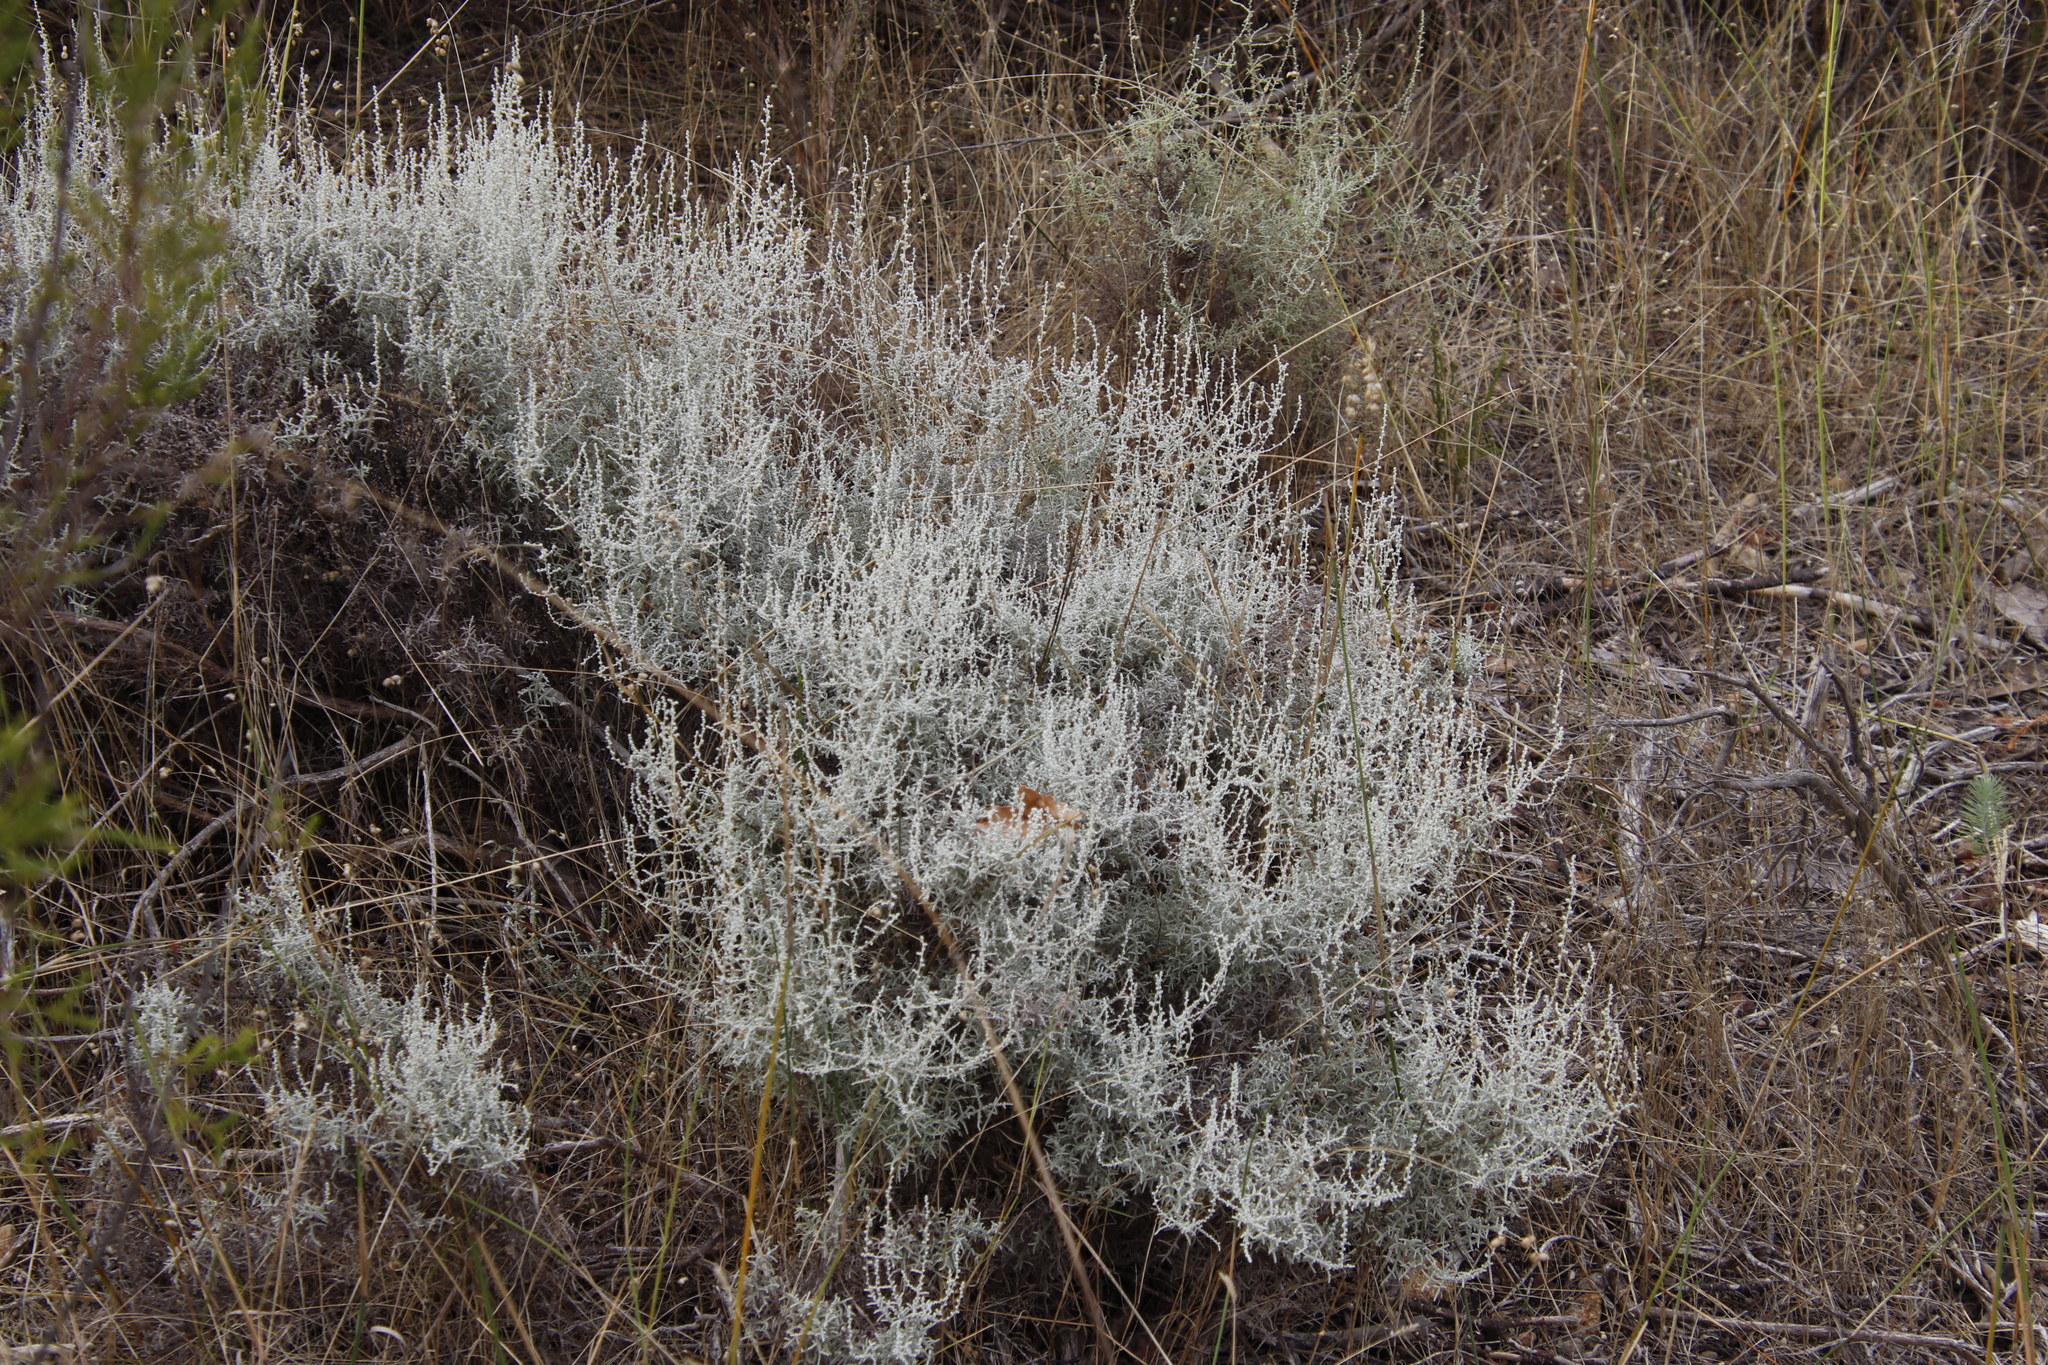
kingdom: Plantae
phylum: Tracheophyta
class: Magnoliopsida
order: Asterales
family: Asteraceae
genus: Seriphium
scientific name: Seriphium plumosum
